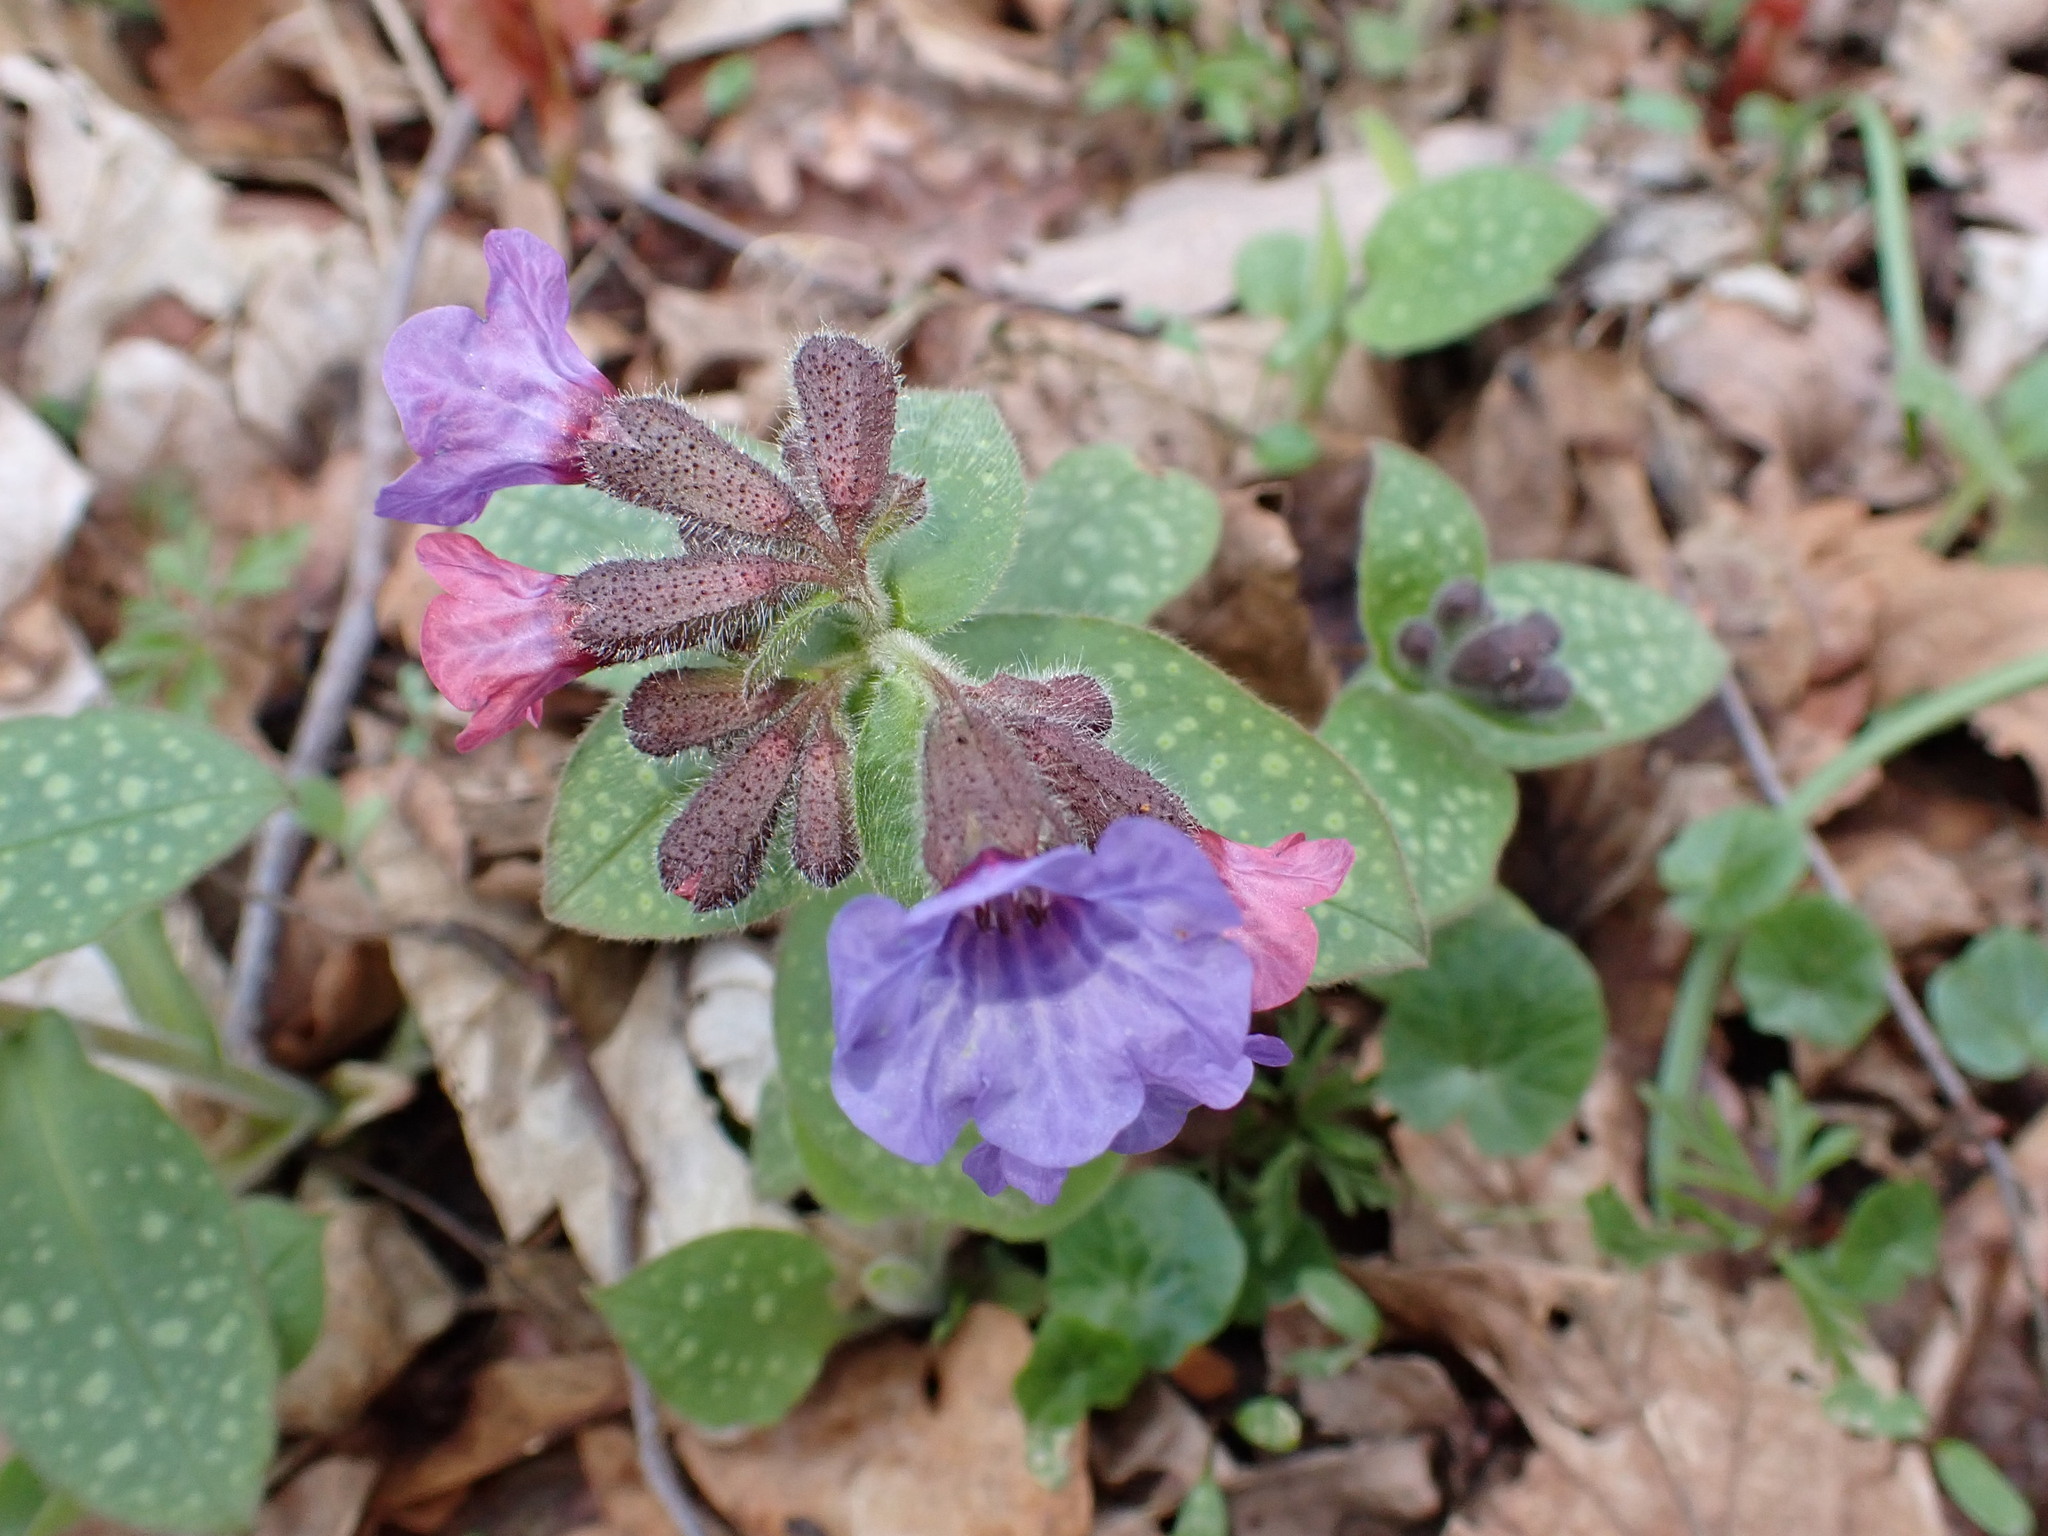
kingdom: Plantae
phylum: Tracheophyta
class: Magnoliopsida
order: Boraginales
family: Boraginaceae
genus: Pulmonaria
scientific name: Pulmonaria officinalis
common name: Lungwort
